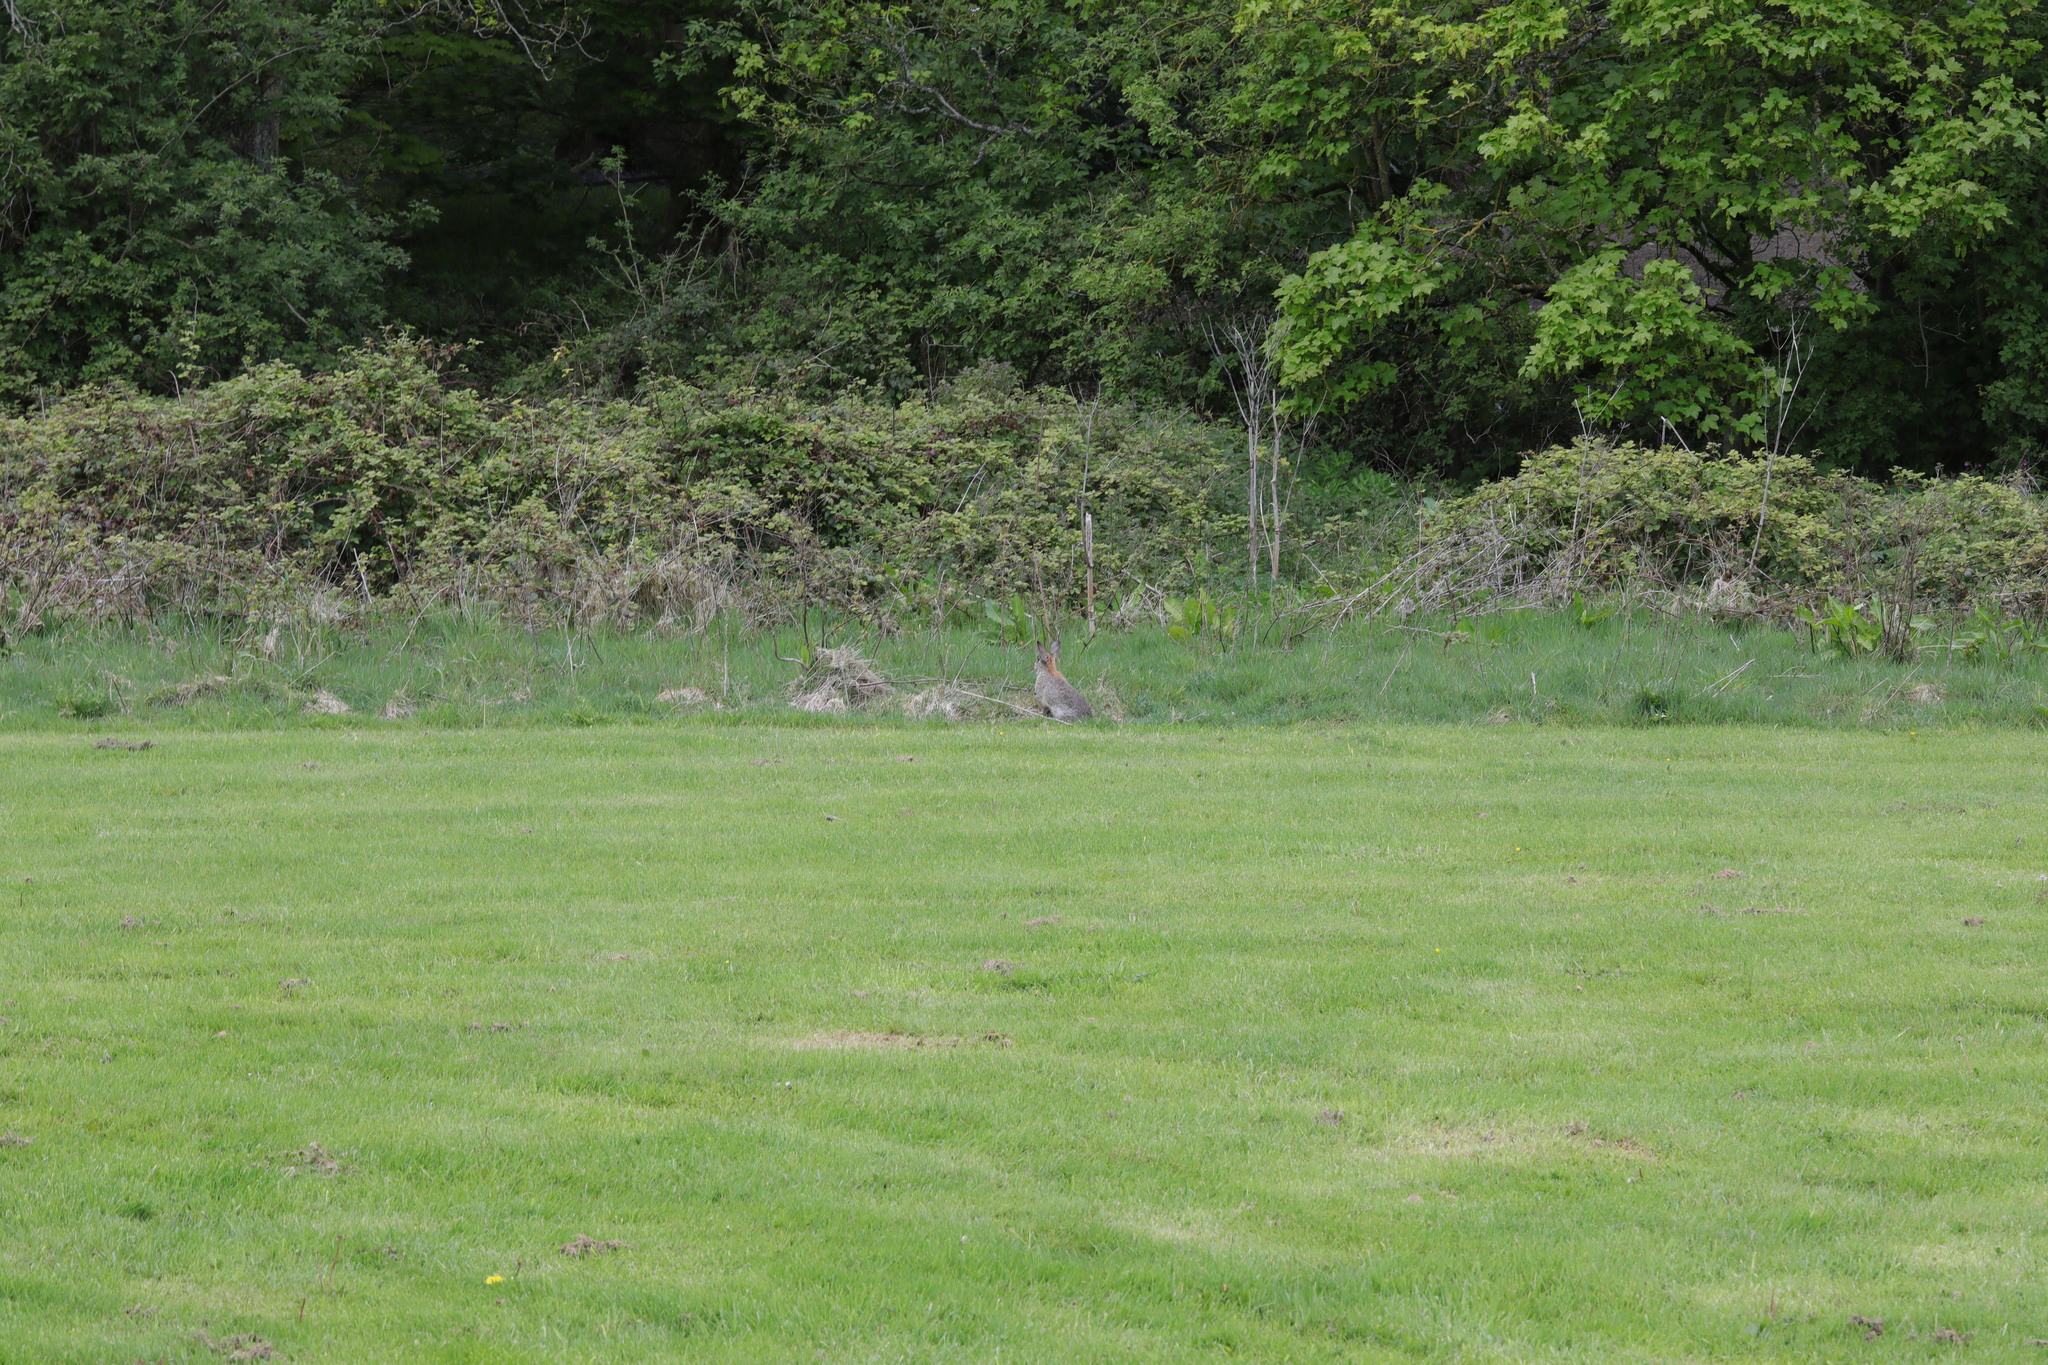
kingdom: Animalia
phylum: Chordata
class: Mammalia
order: Lagomorpha
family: Leporidae
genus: Oryctolagus
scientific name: Oryctolagus cuniculus
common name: European rabbit
